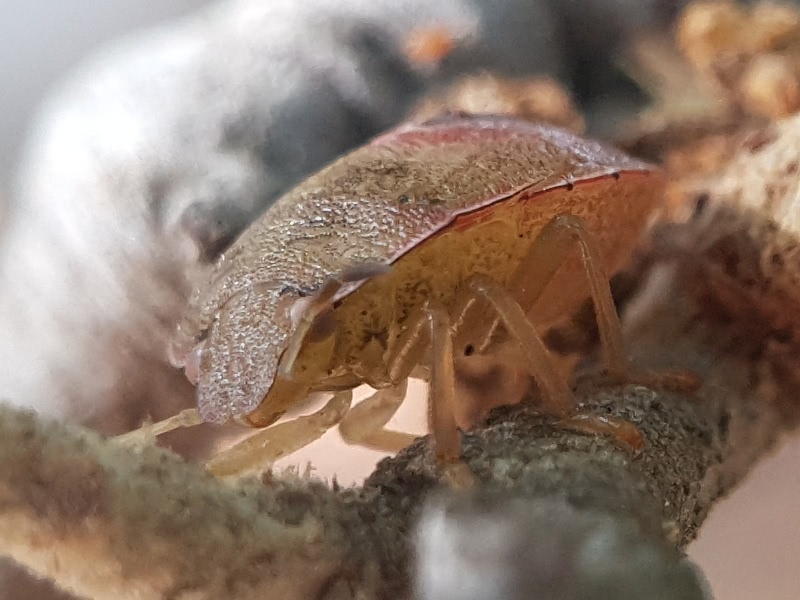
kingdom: Animalia
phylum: Arthropoda
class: Insecta
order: Hemiptera
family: Pentatomidae
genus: Acrosternum
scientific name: Acrosternum heegeri
